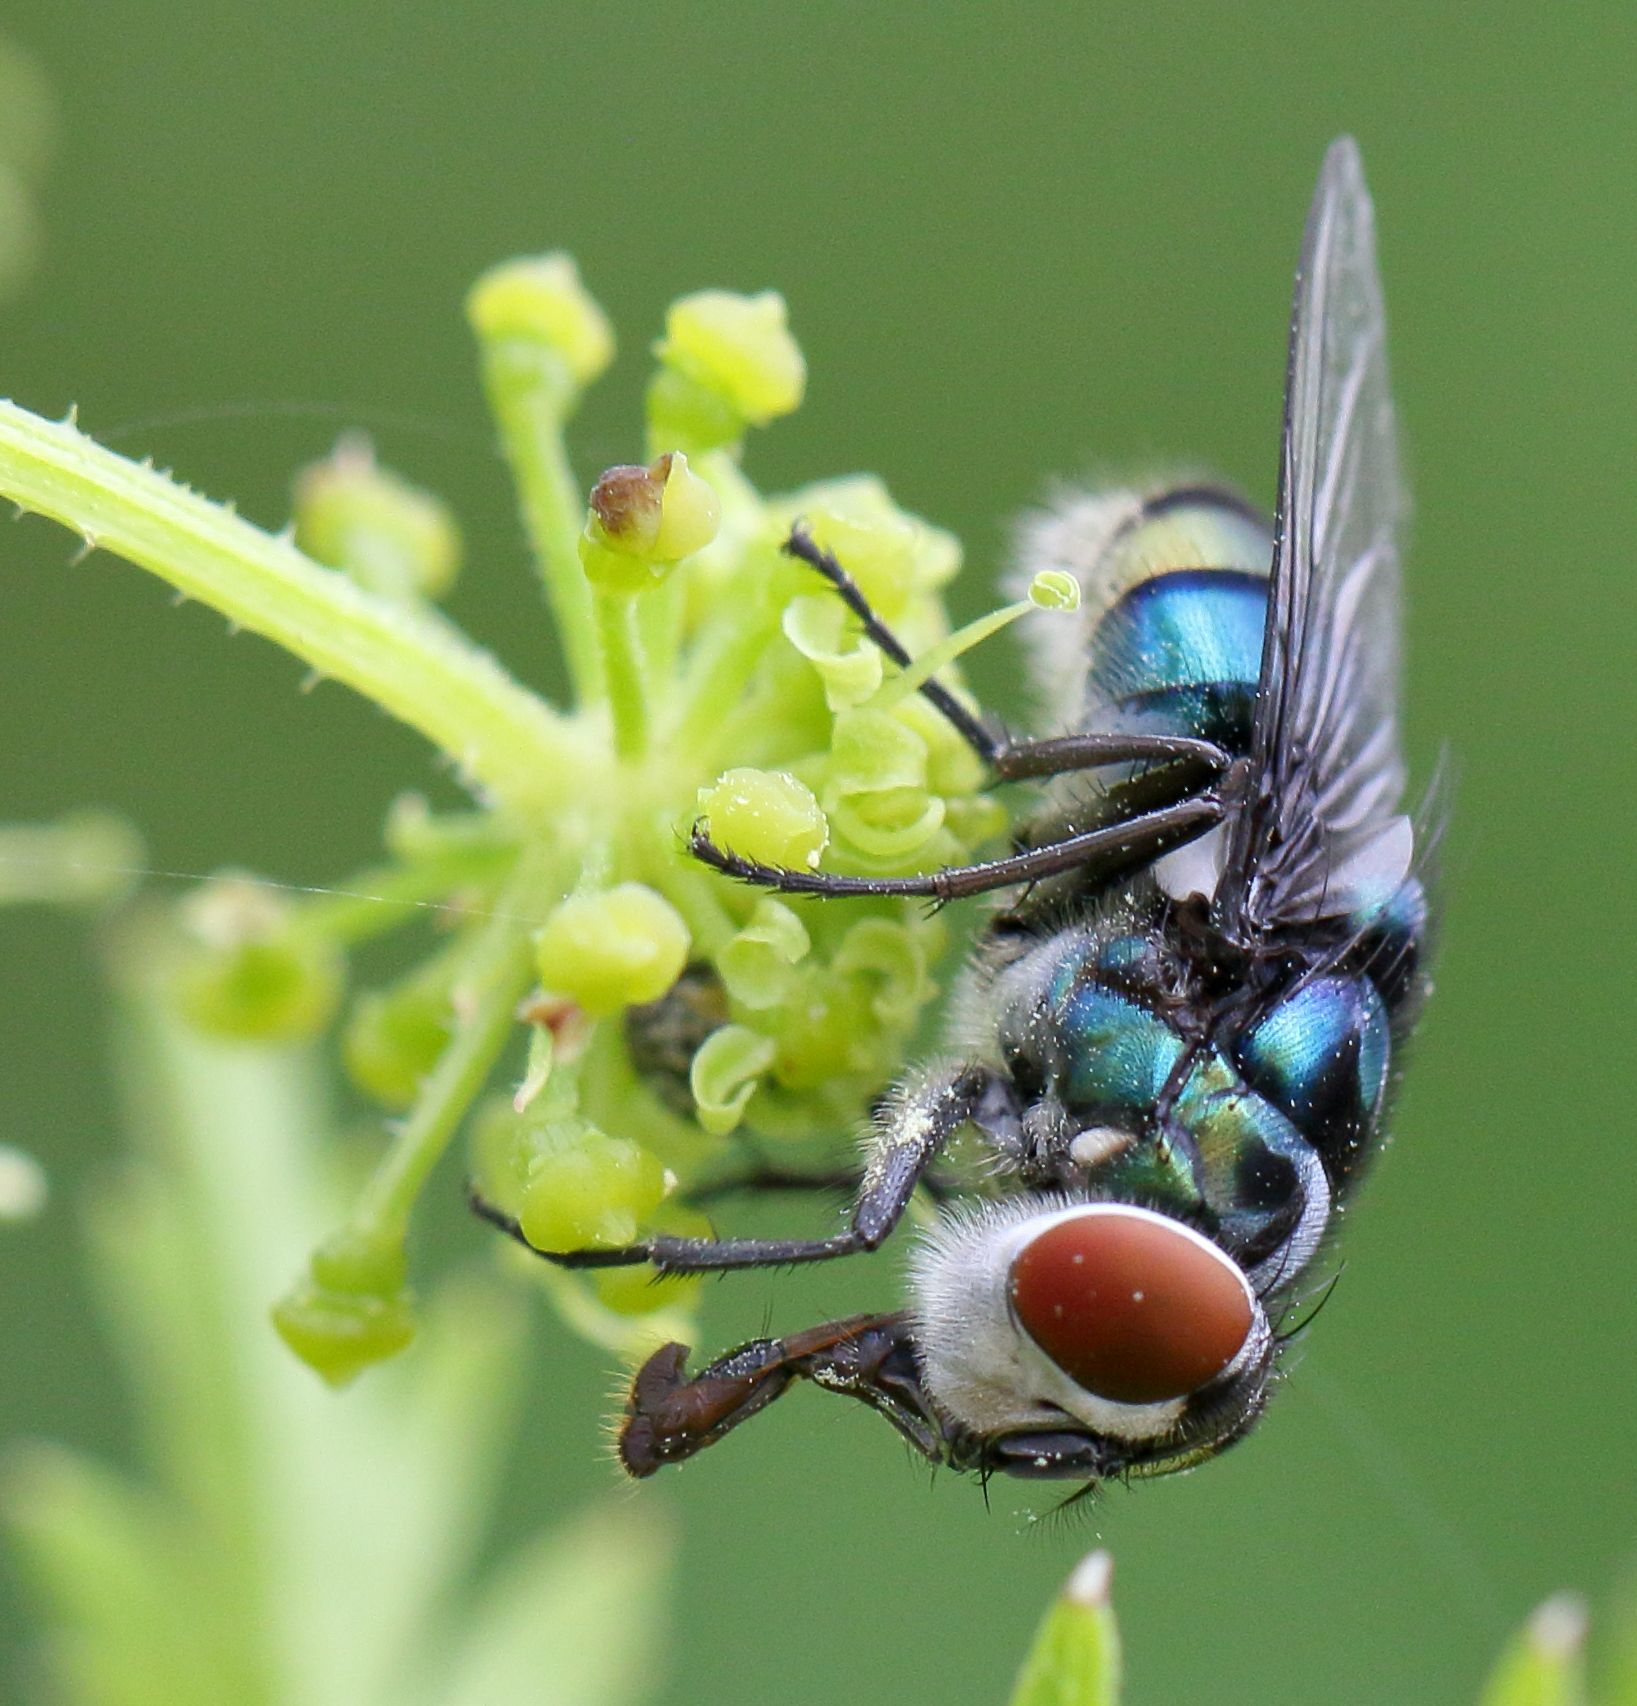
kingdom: Animalia
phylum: Arthropoda
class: Insecta
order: Diptera
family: Calliphoridae
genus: Chrysomya
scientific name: Chrysomya chloropyga
